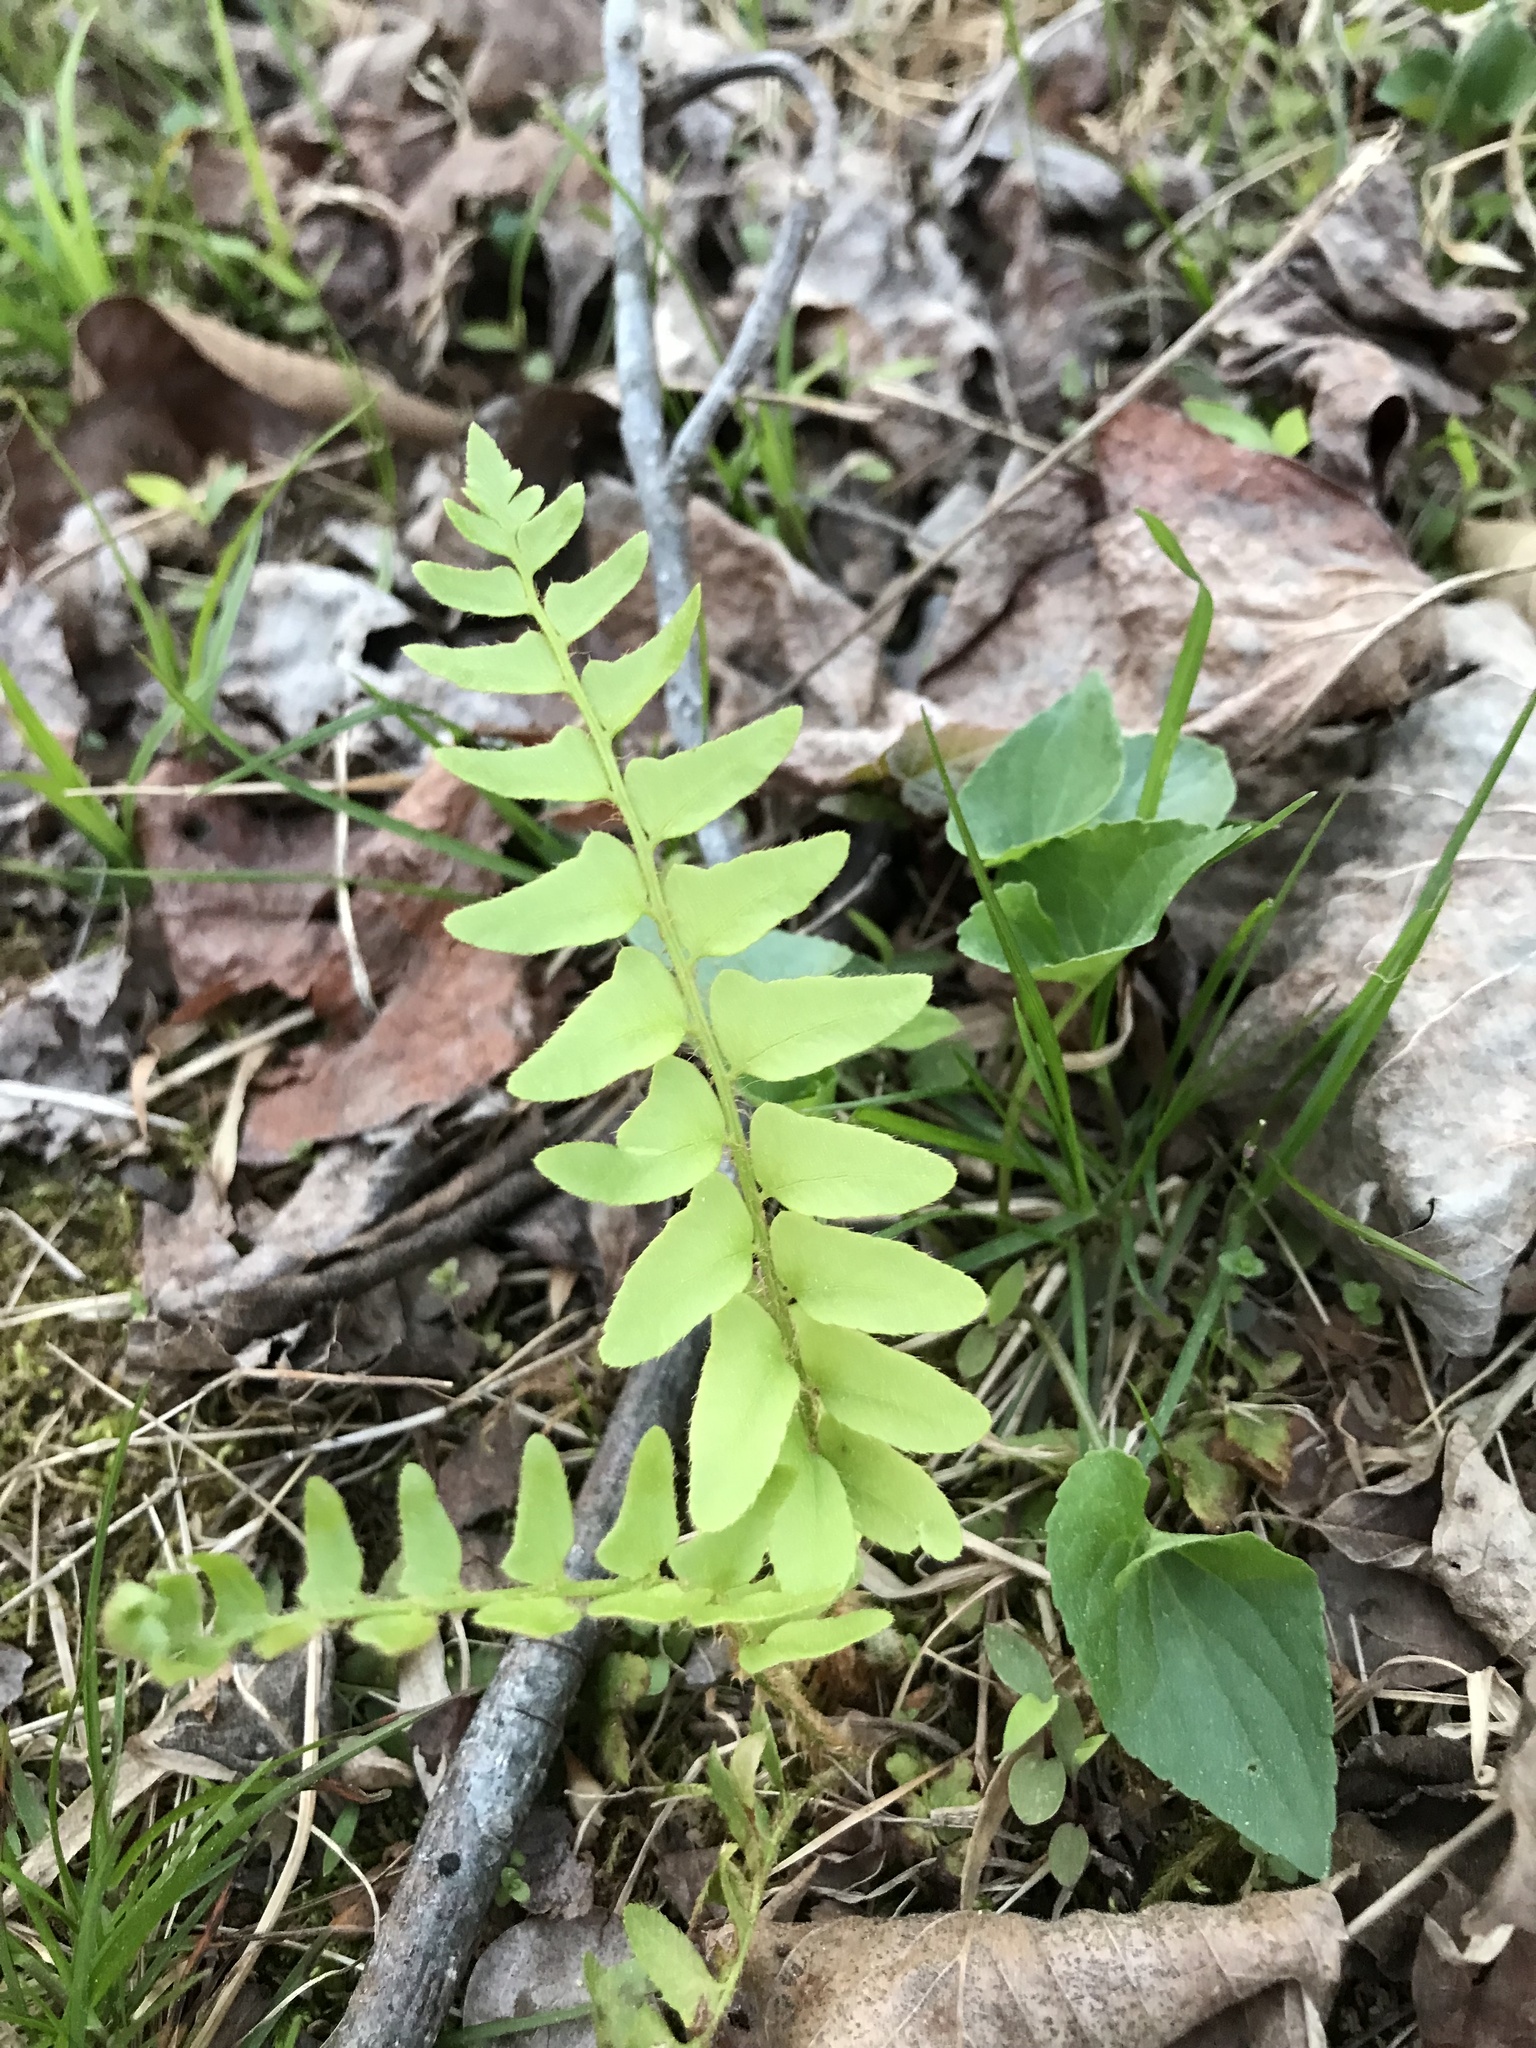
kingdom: Plantae
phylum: Tracheophyta
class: Polypodiopsida
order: Polypodiales
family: Dryopteridaceae
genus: Polystichum
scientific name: Polystichum acrostichoides
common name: Christmas fern
